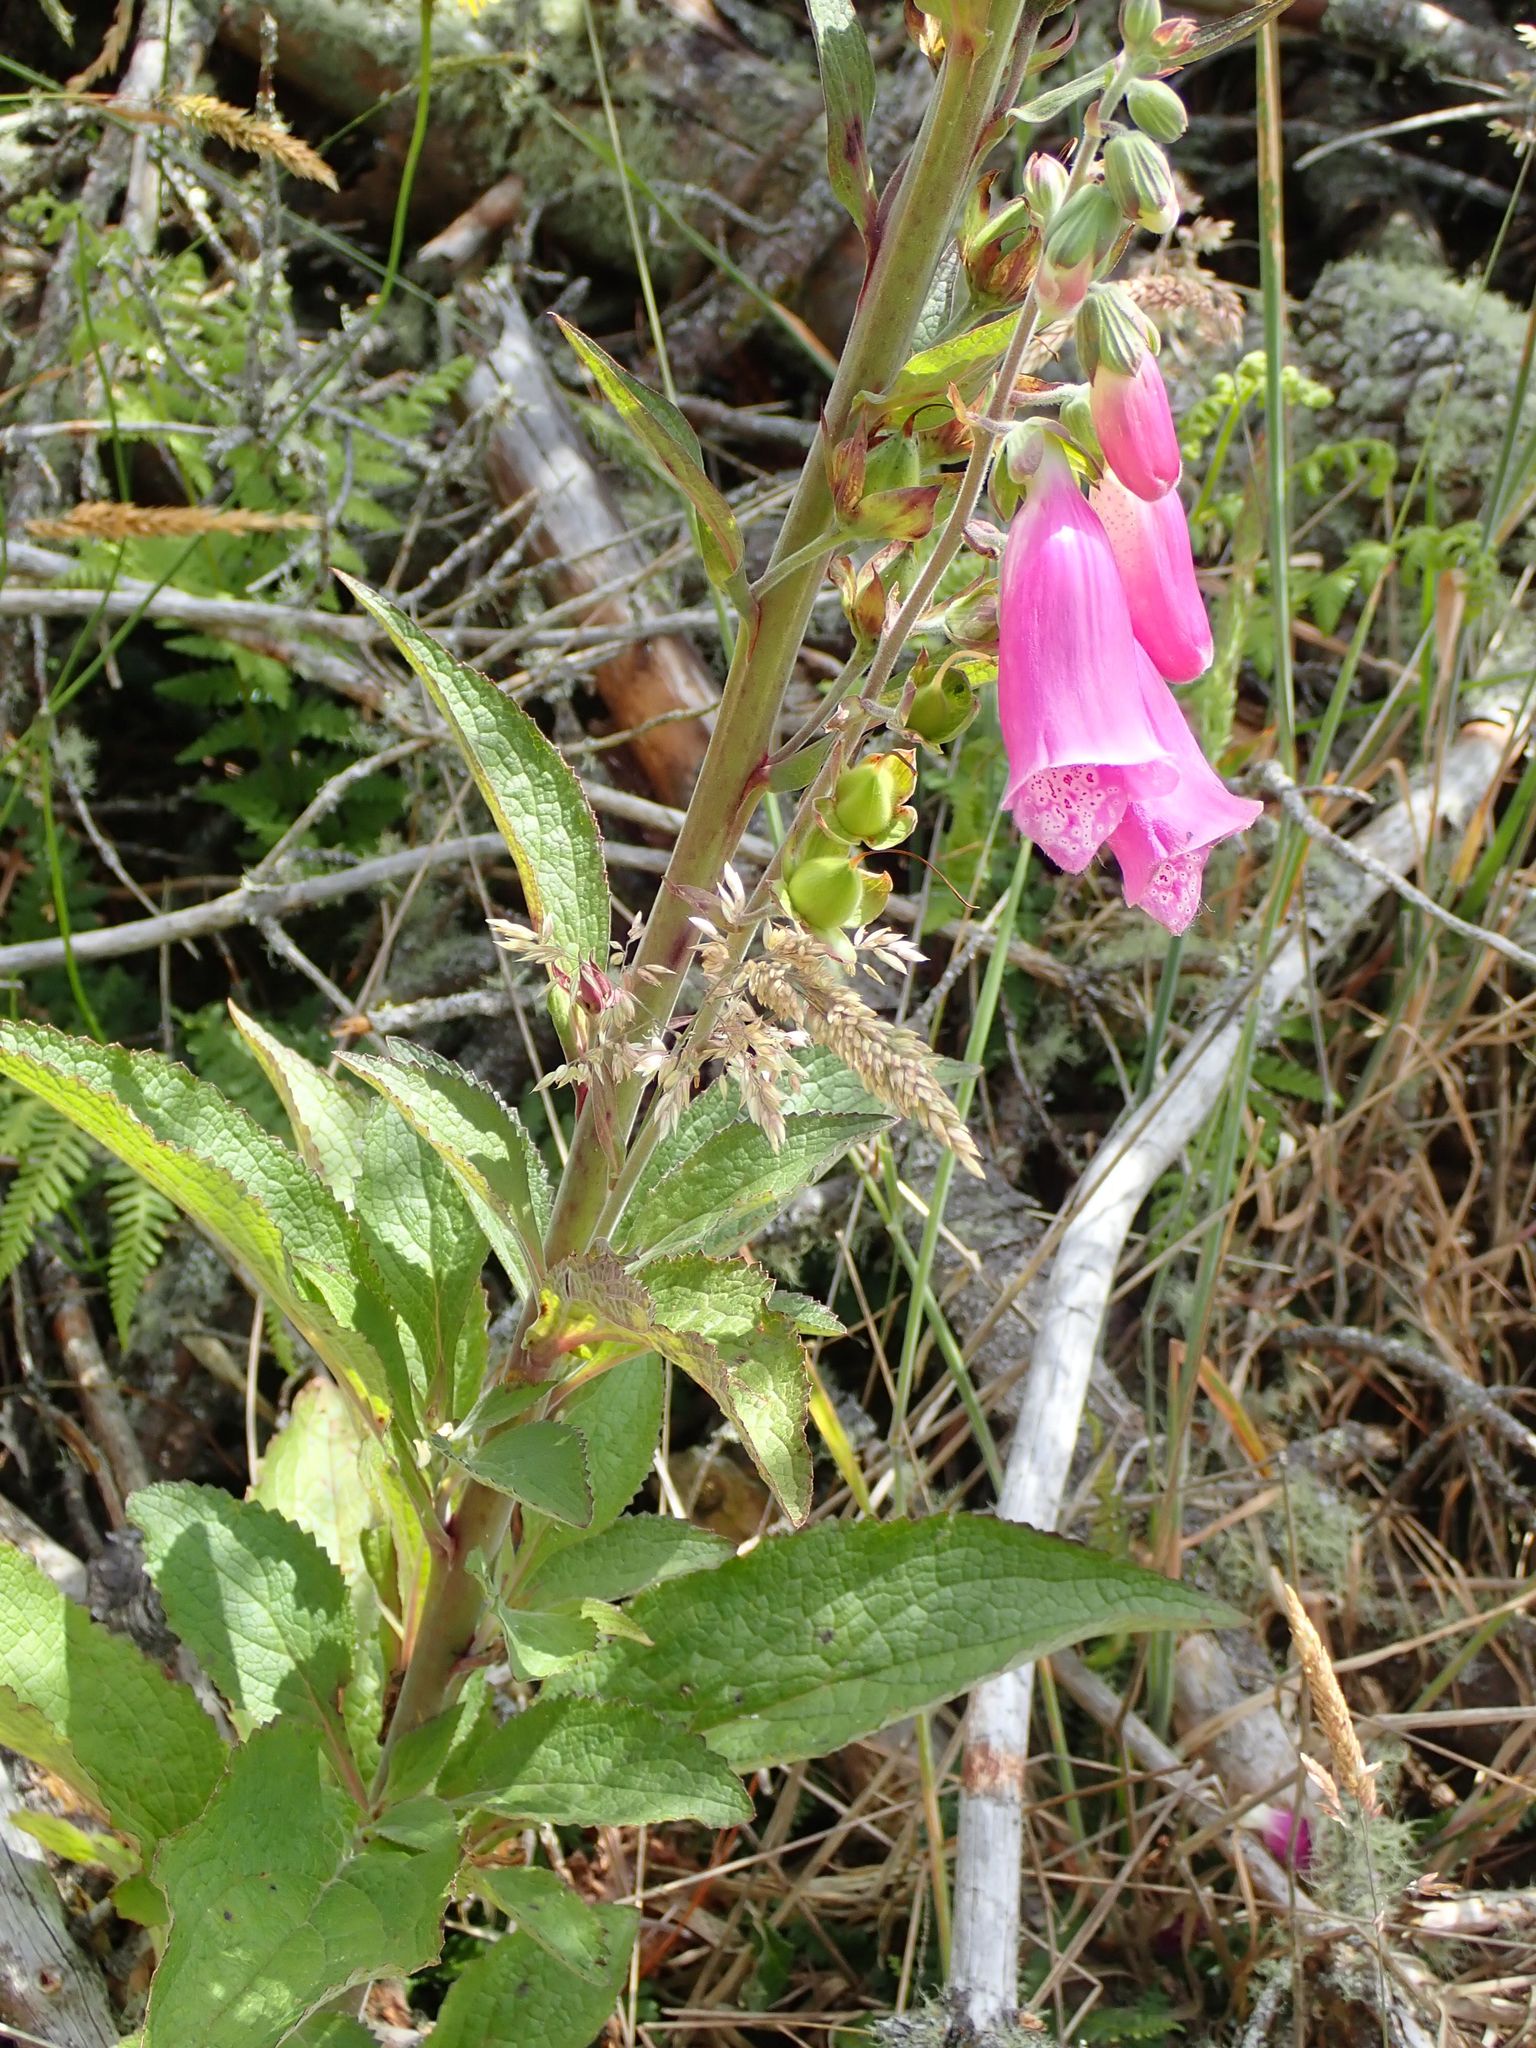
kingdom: Plantae
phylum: Tracheophyta
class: Magnoliopsida
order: Lamiales
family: Plantaginaceae
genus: Digitalis
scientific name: Digitalis purpurea
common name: Foxglove
